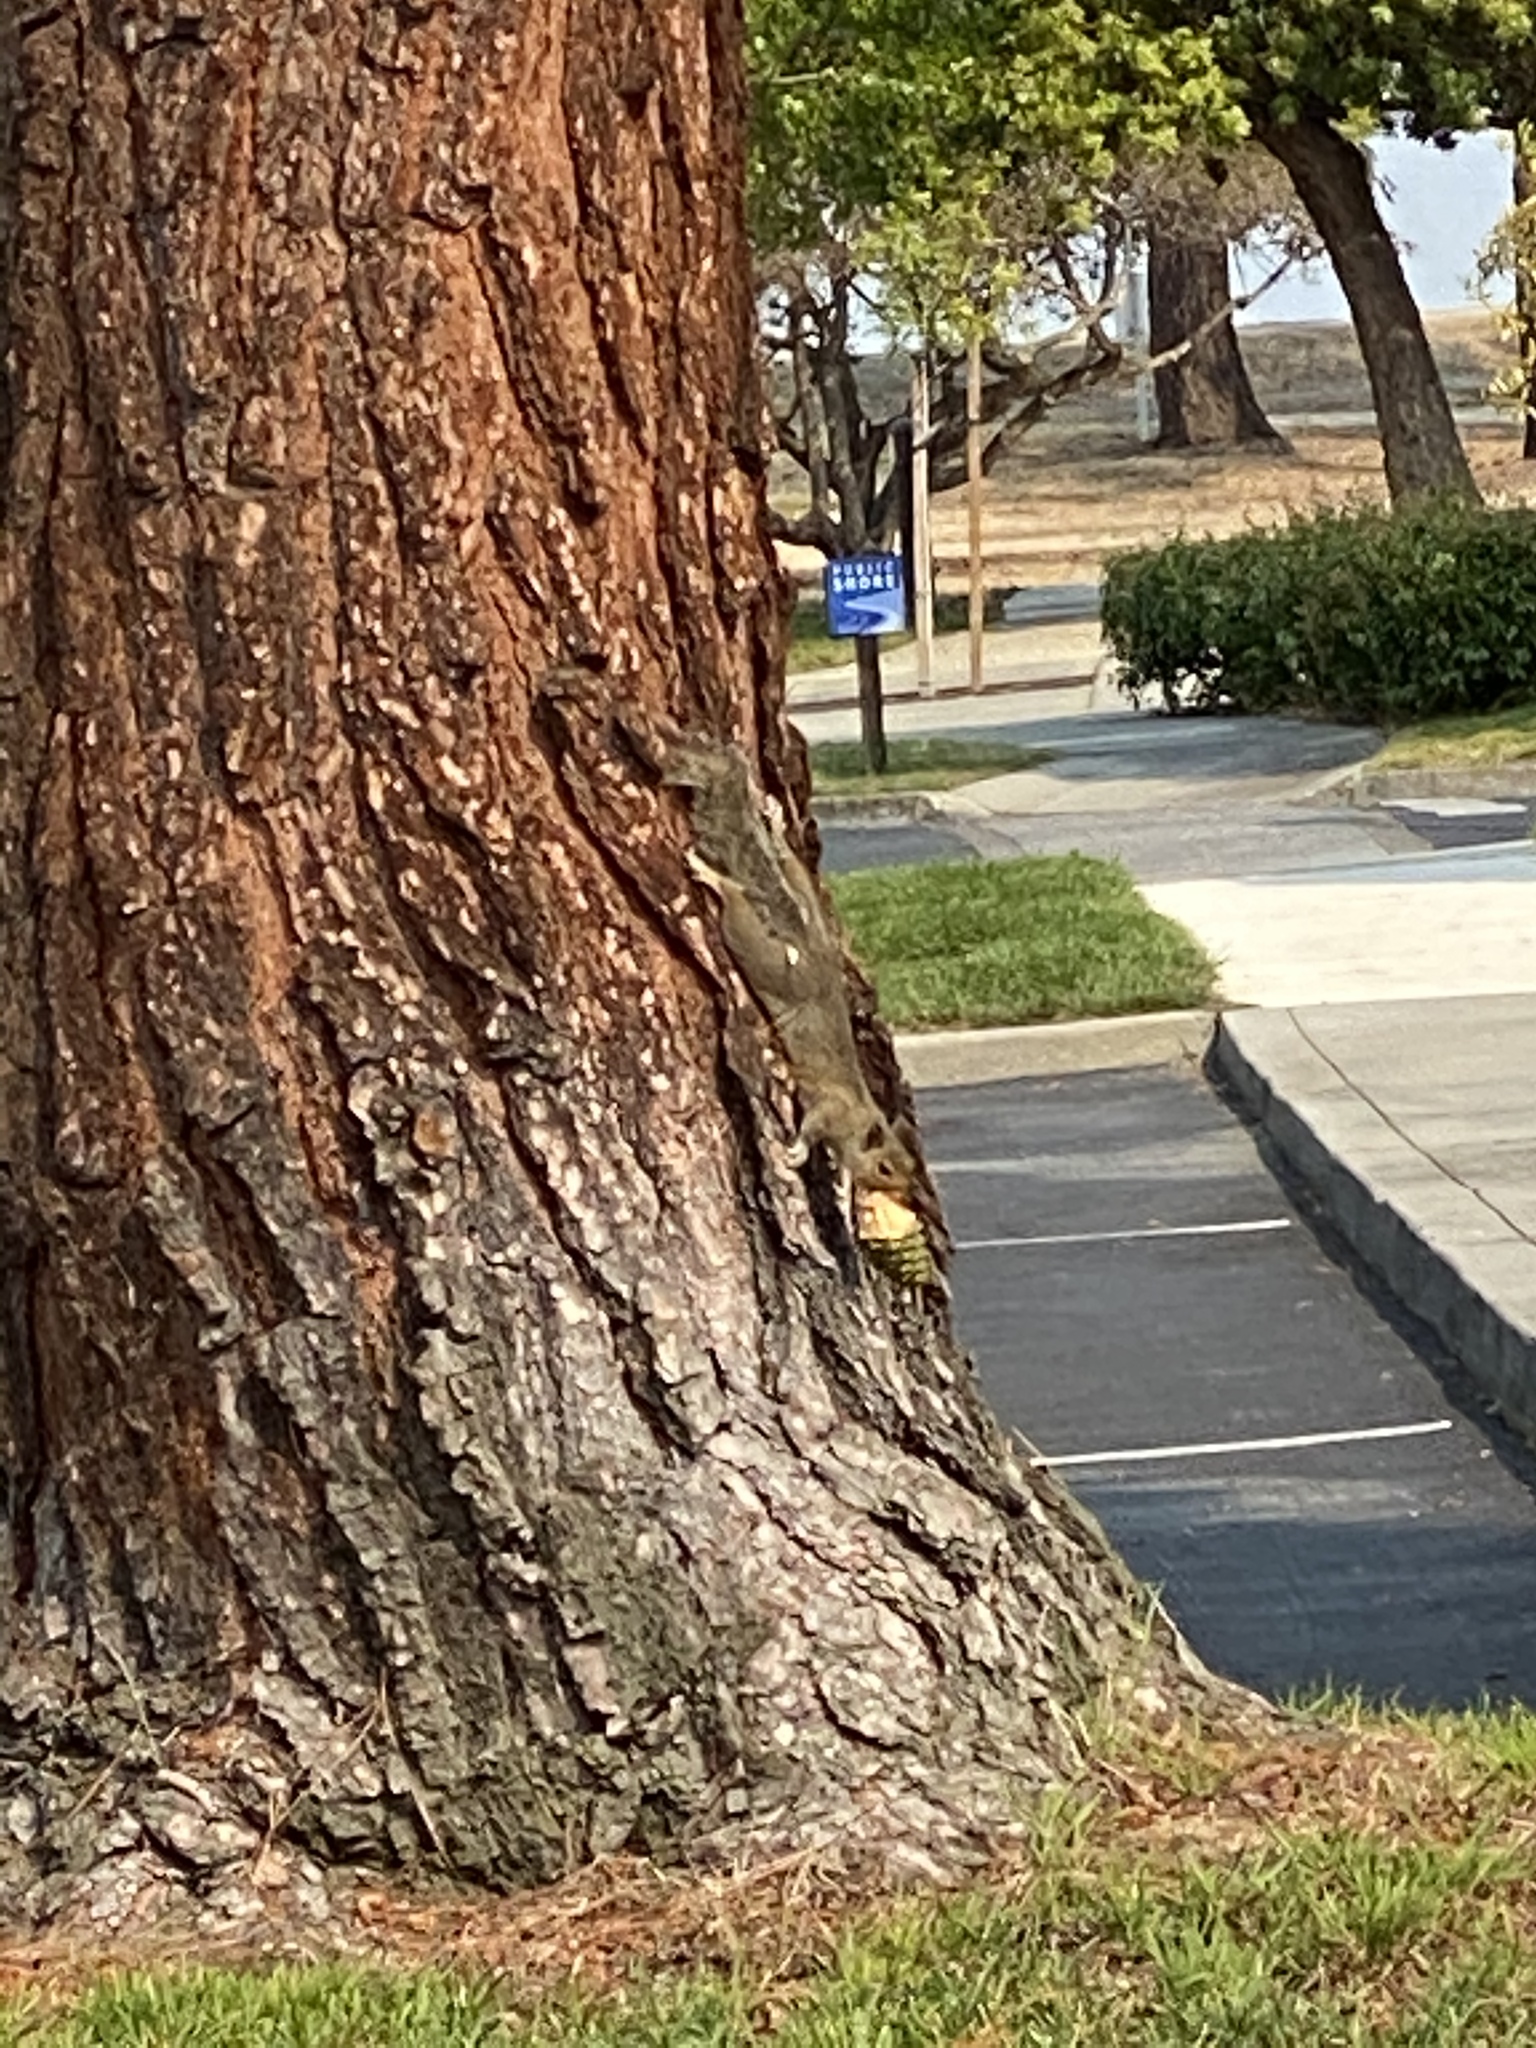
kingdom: Animalia
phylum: Chordata
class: Mammalia
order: Rodentia
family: Sciuridae
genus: Sciurus
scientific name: Sciurus carolinensis
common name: Eastern gray squirrel
